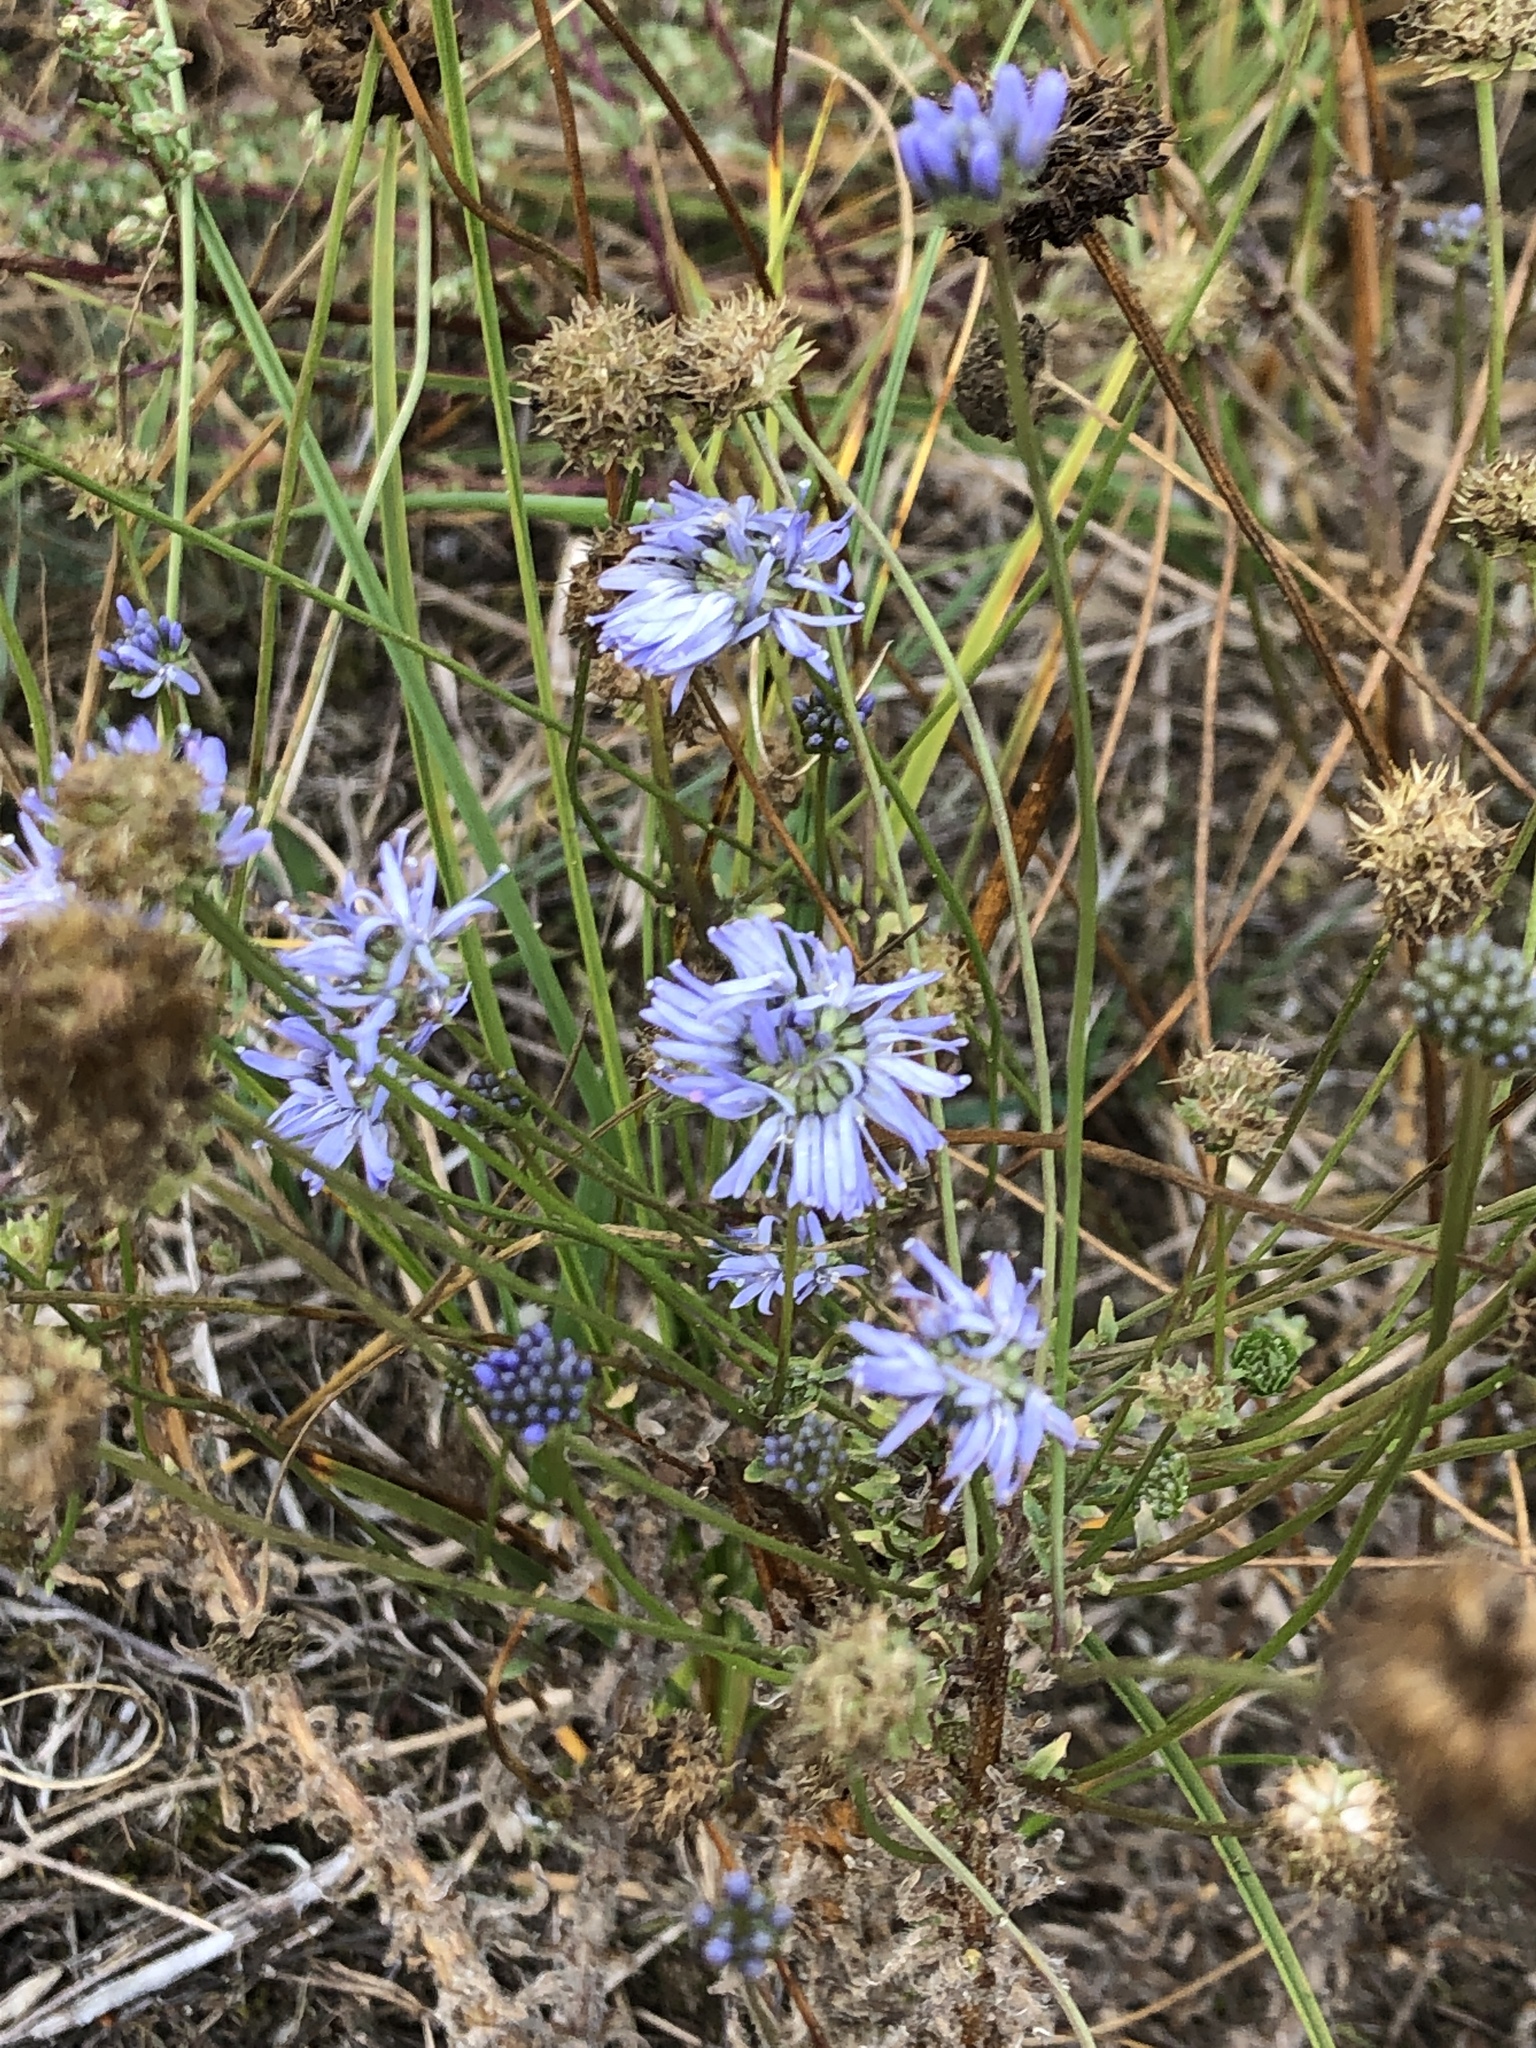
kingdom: Plantae
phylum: Tracheophyta
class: Magnoliopsida
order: Asterales
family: Campanulaceae
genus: Jasione
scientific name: Jasione montana
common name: Sheep's-bit
